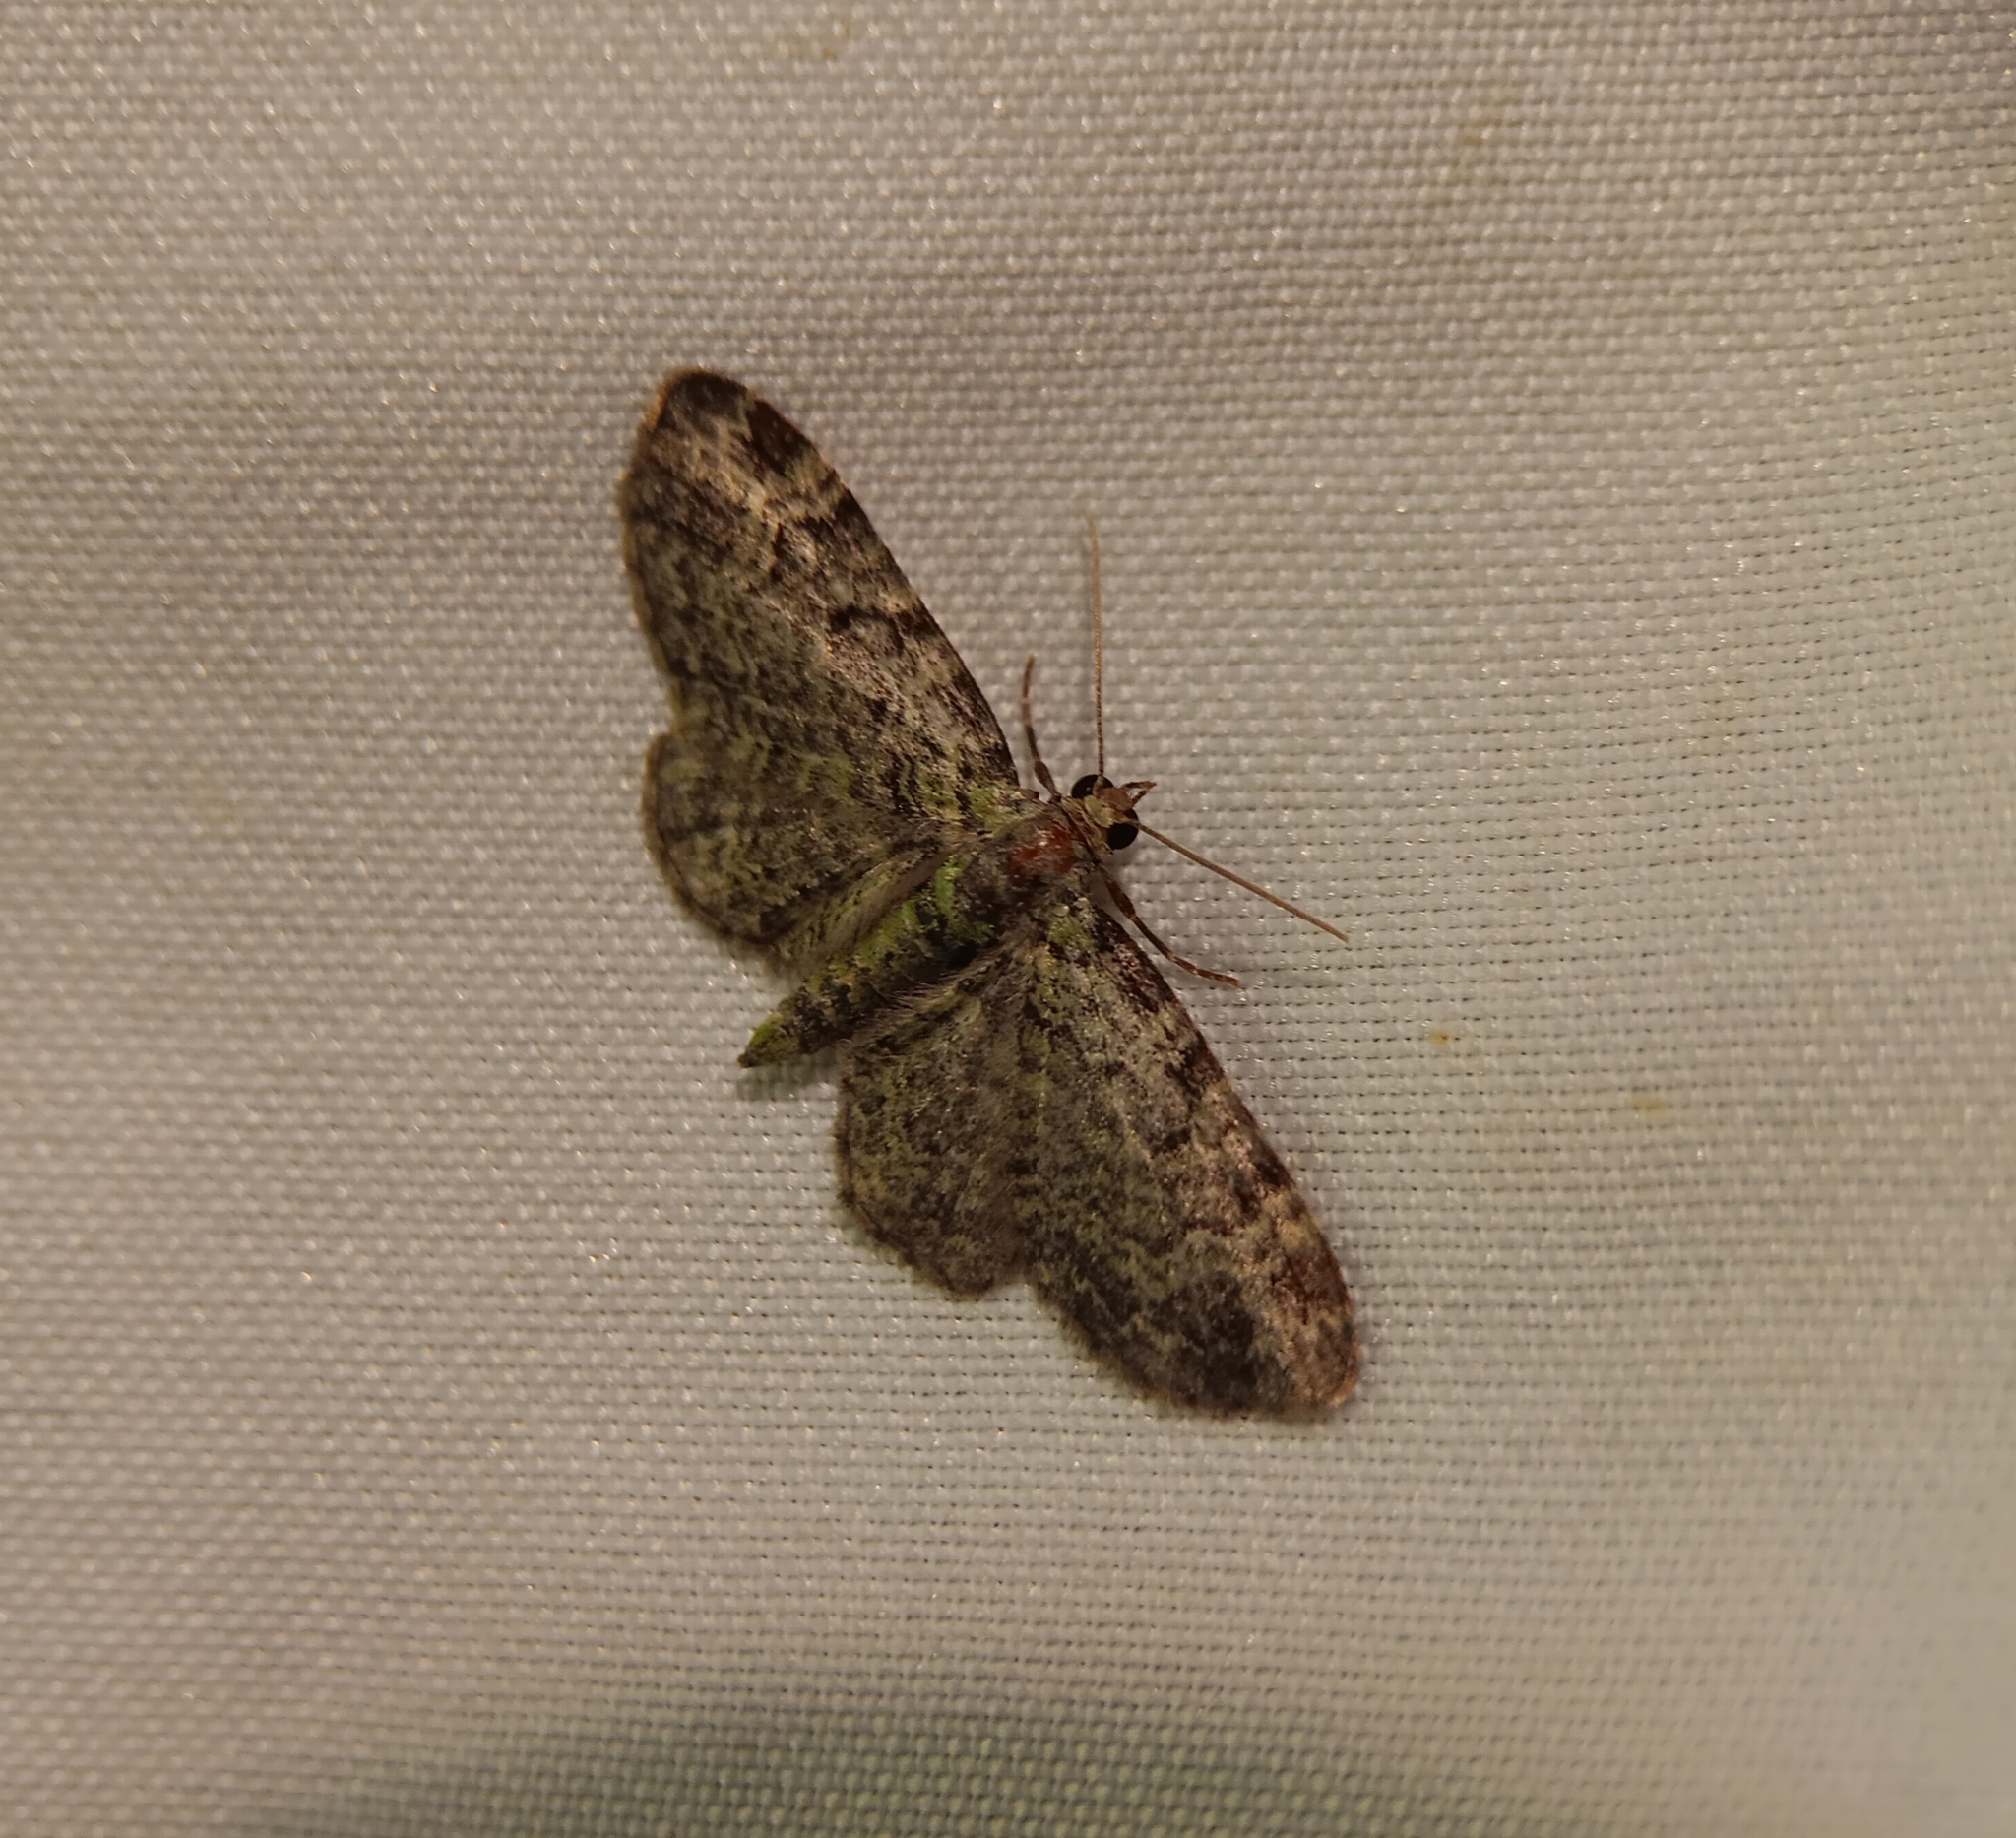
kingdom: Animalia
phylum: Arthropoda
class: Insecta
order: Lepidoptera
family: Geometridae
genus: Pasiphila
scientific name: Pasiphila rectangulata
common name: Green pug
